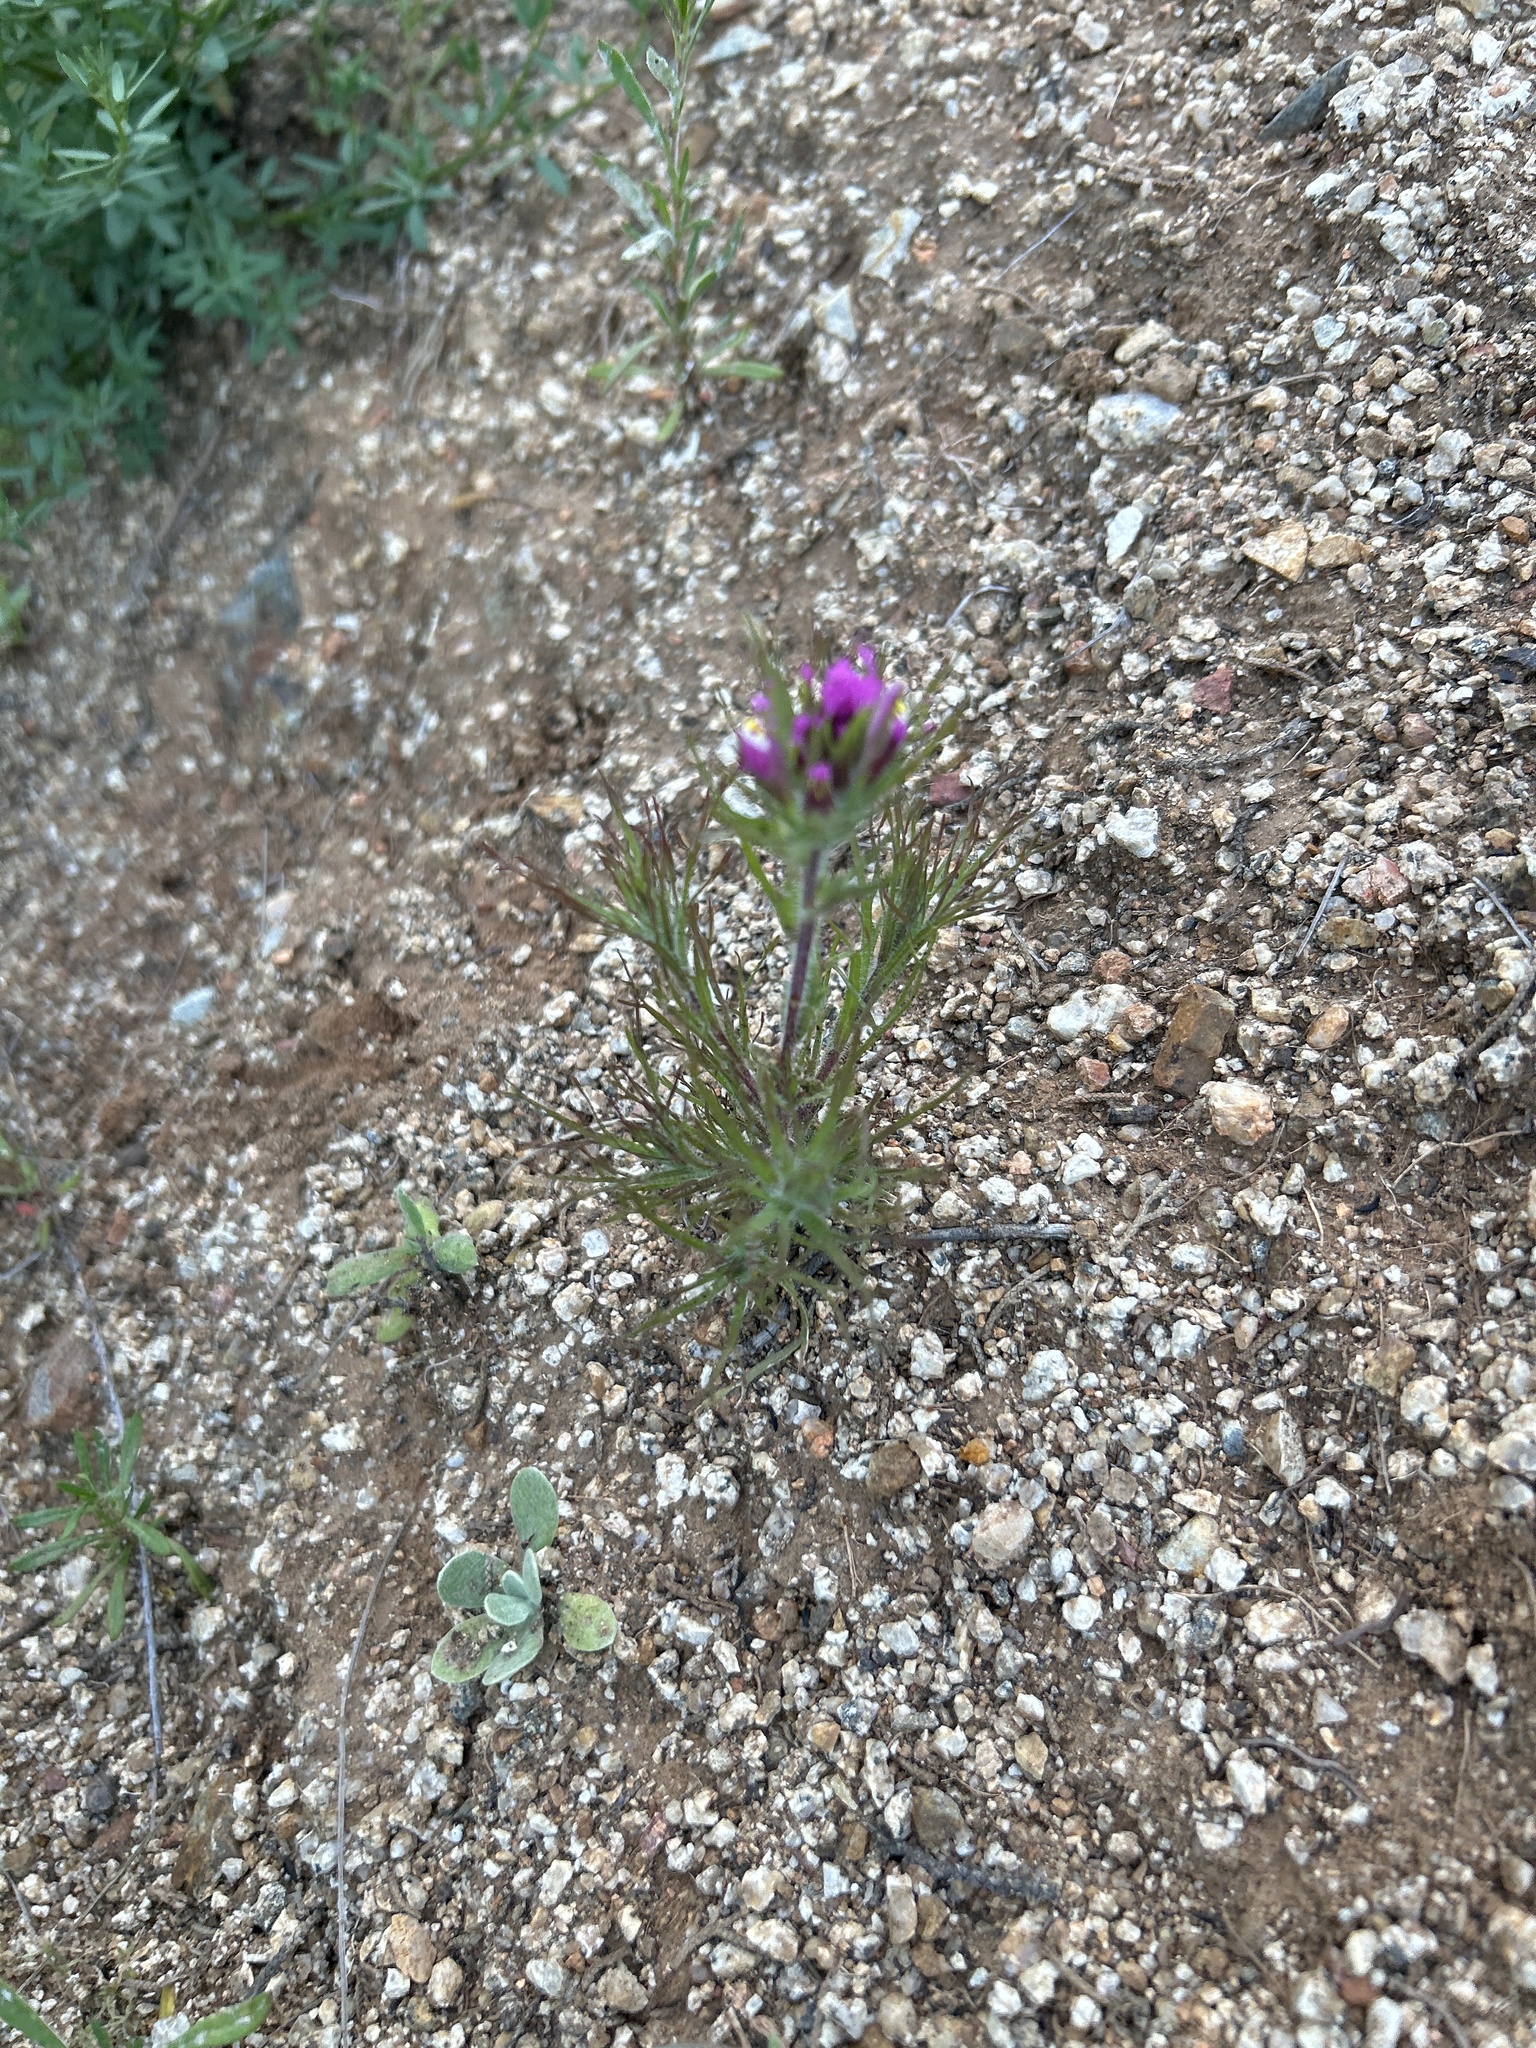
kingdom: Plantae
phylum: Tracheophyta
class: Magnoliopsida
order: Lamiales
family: Orobanchaceae
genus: Castilleja
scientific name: Castilleja exserta
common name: Purple owl-clover
